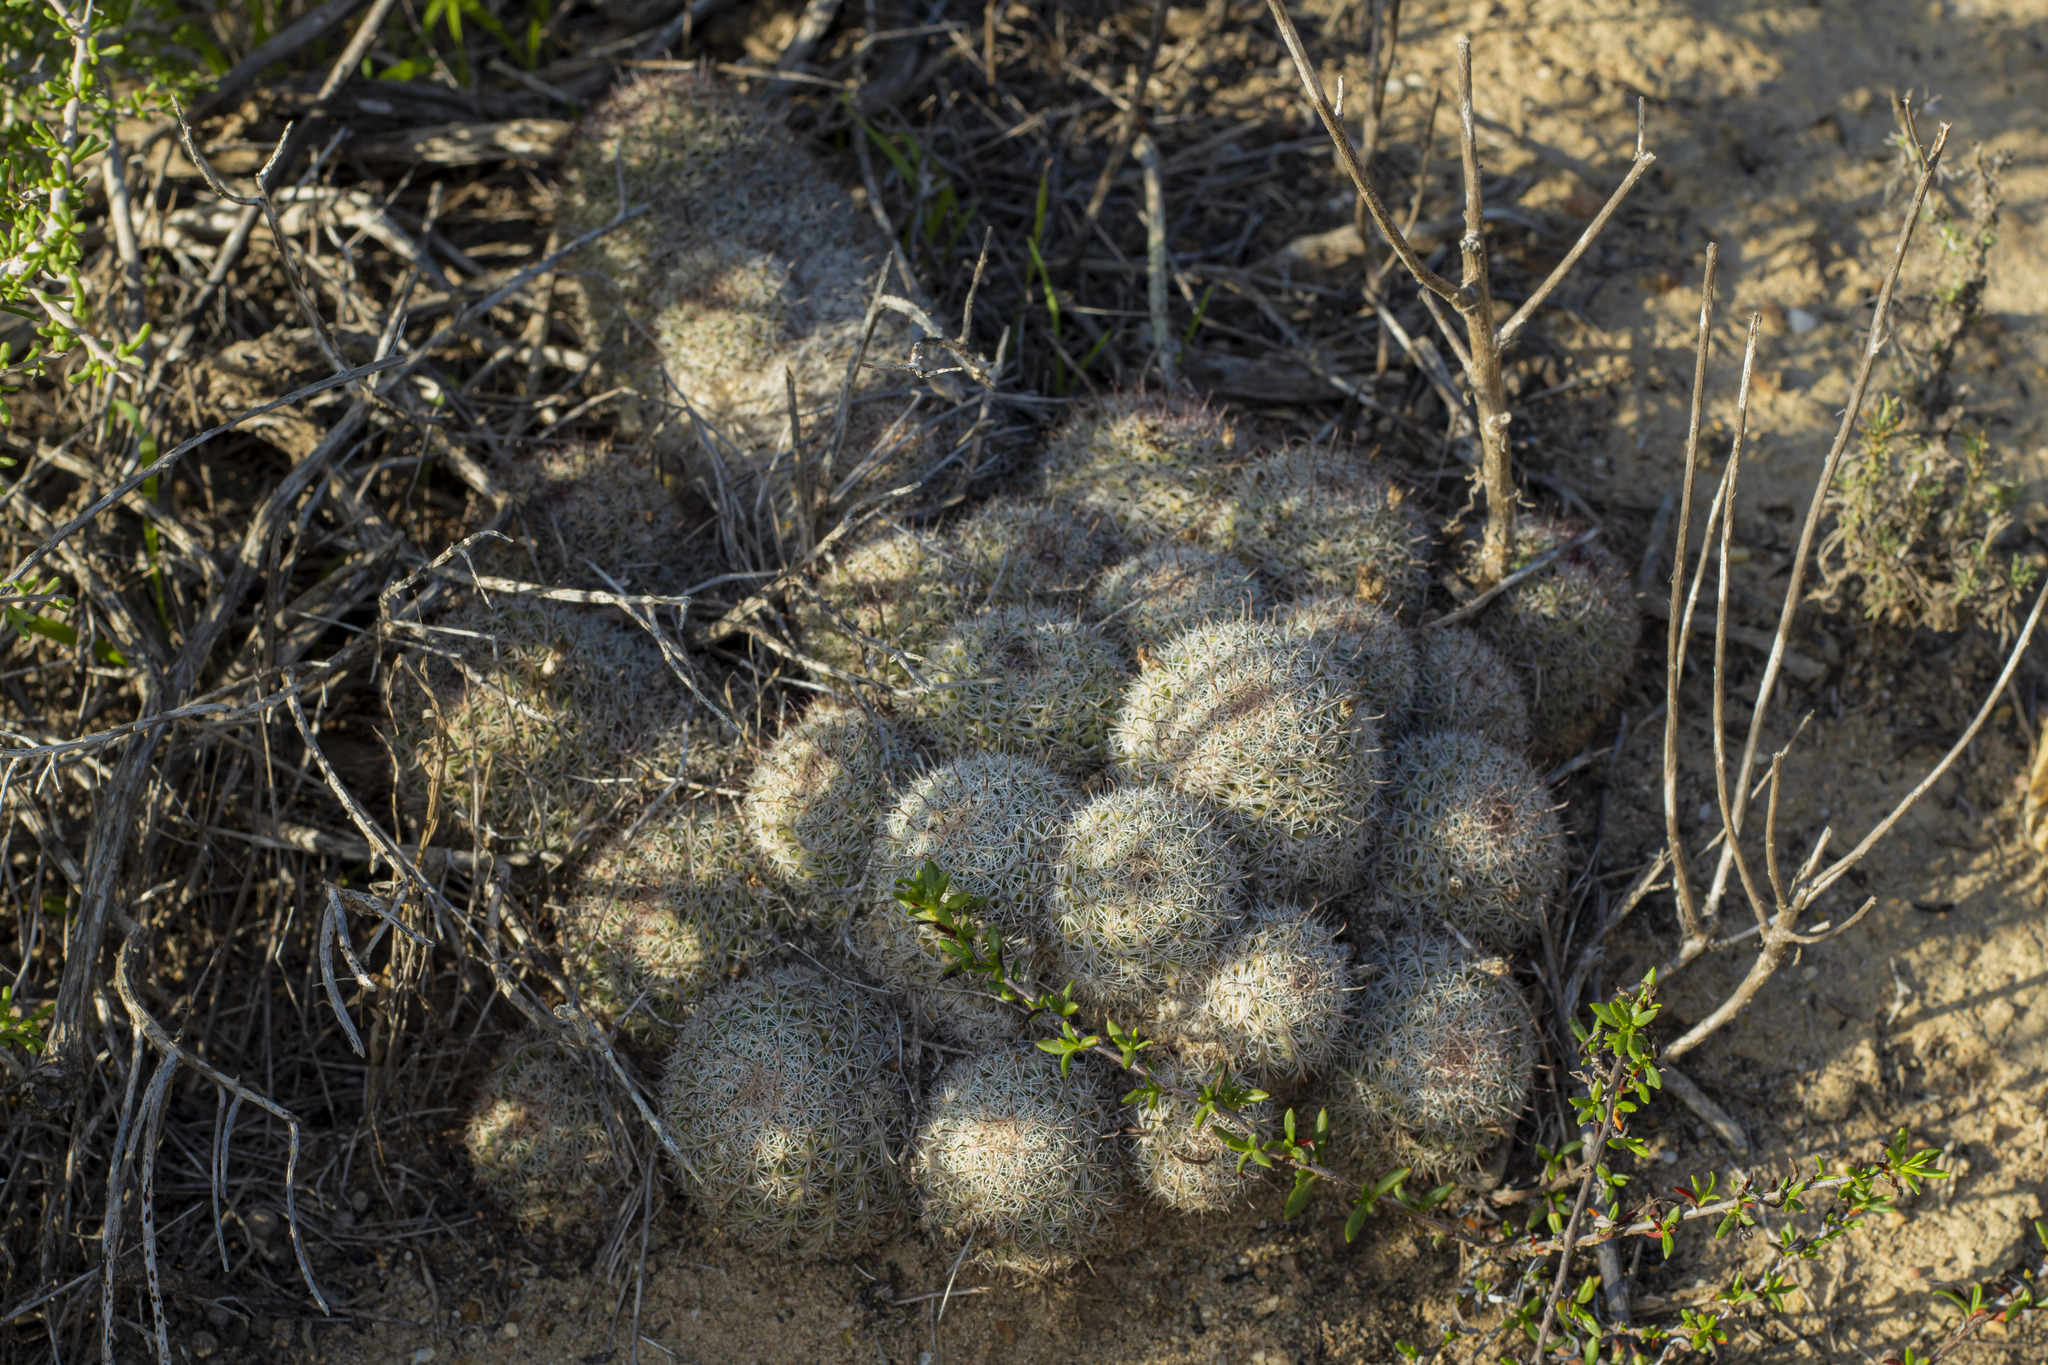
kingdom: Plantae
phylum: Tracheophyta
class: Magnoliopsida
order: Caryophyllales
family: Cactaceae
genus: Cochemiea
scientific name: Cochemiea dioica
